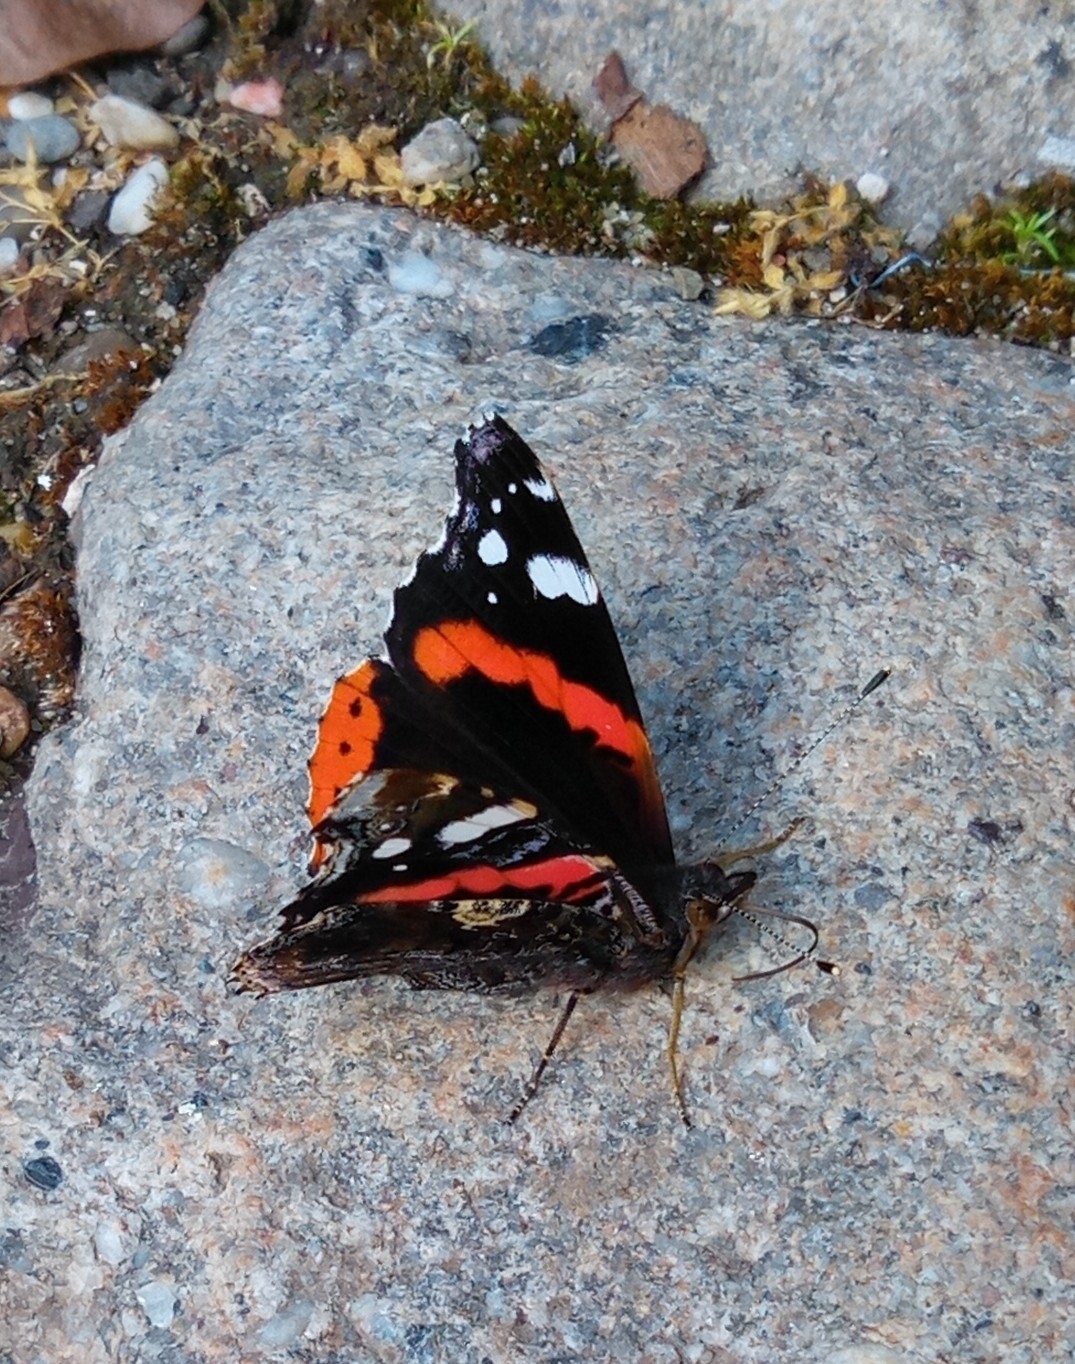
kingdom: Animalia
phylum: Arthropoda
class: Insecta
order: Lepidoptera
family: Nymphalidae
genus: Vanessa
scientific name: Vanessa atalanta
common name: Red admiral
